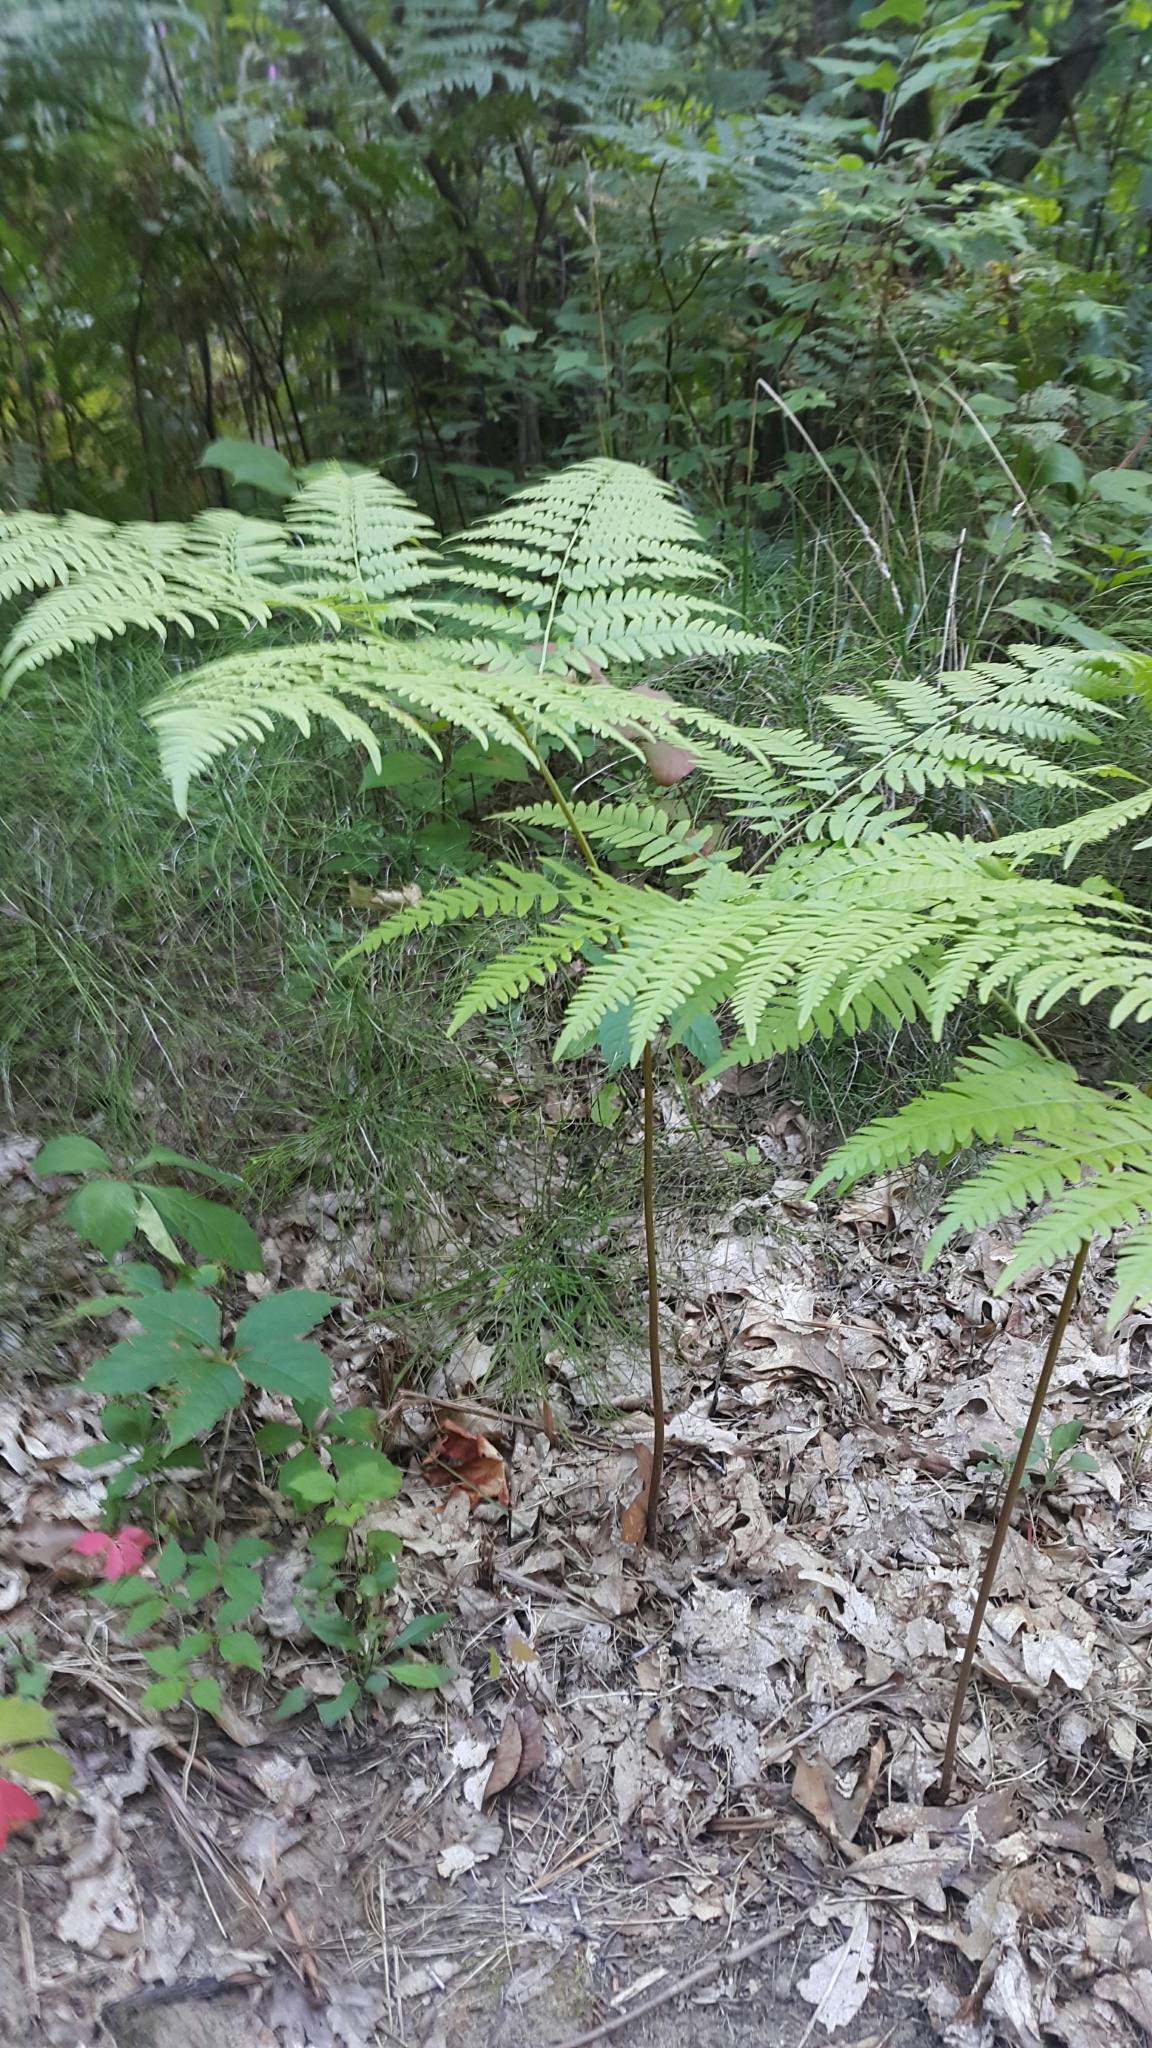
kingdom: Plantae
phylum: Tracheophyta
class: Polypodiopsida
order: Polypodiales
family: Dennstaedtiaceae
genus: Pteridium
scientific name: Pteridium aquilinum
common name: Bracken
